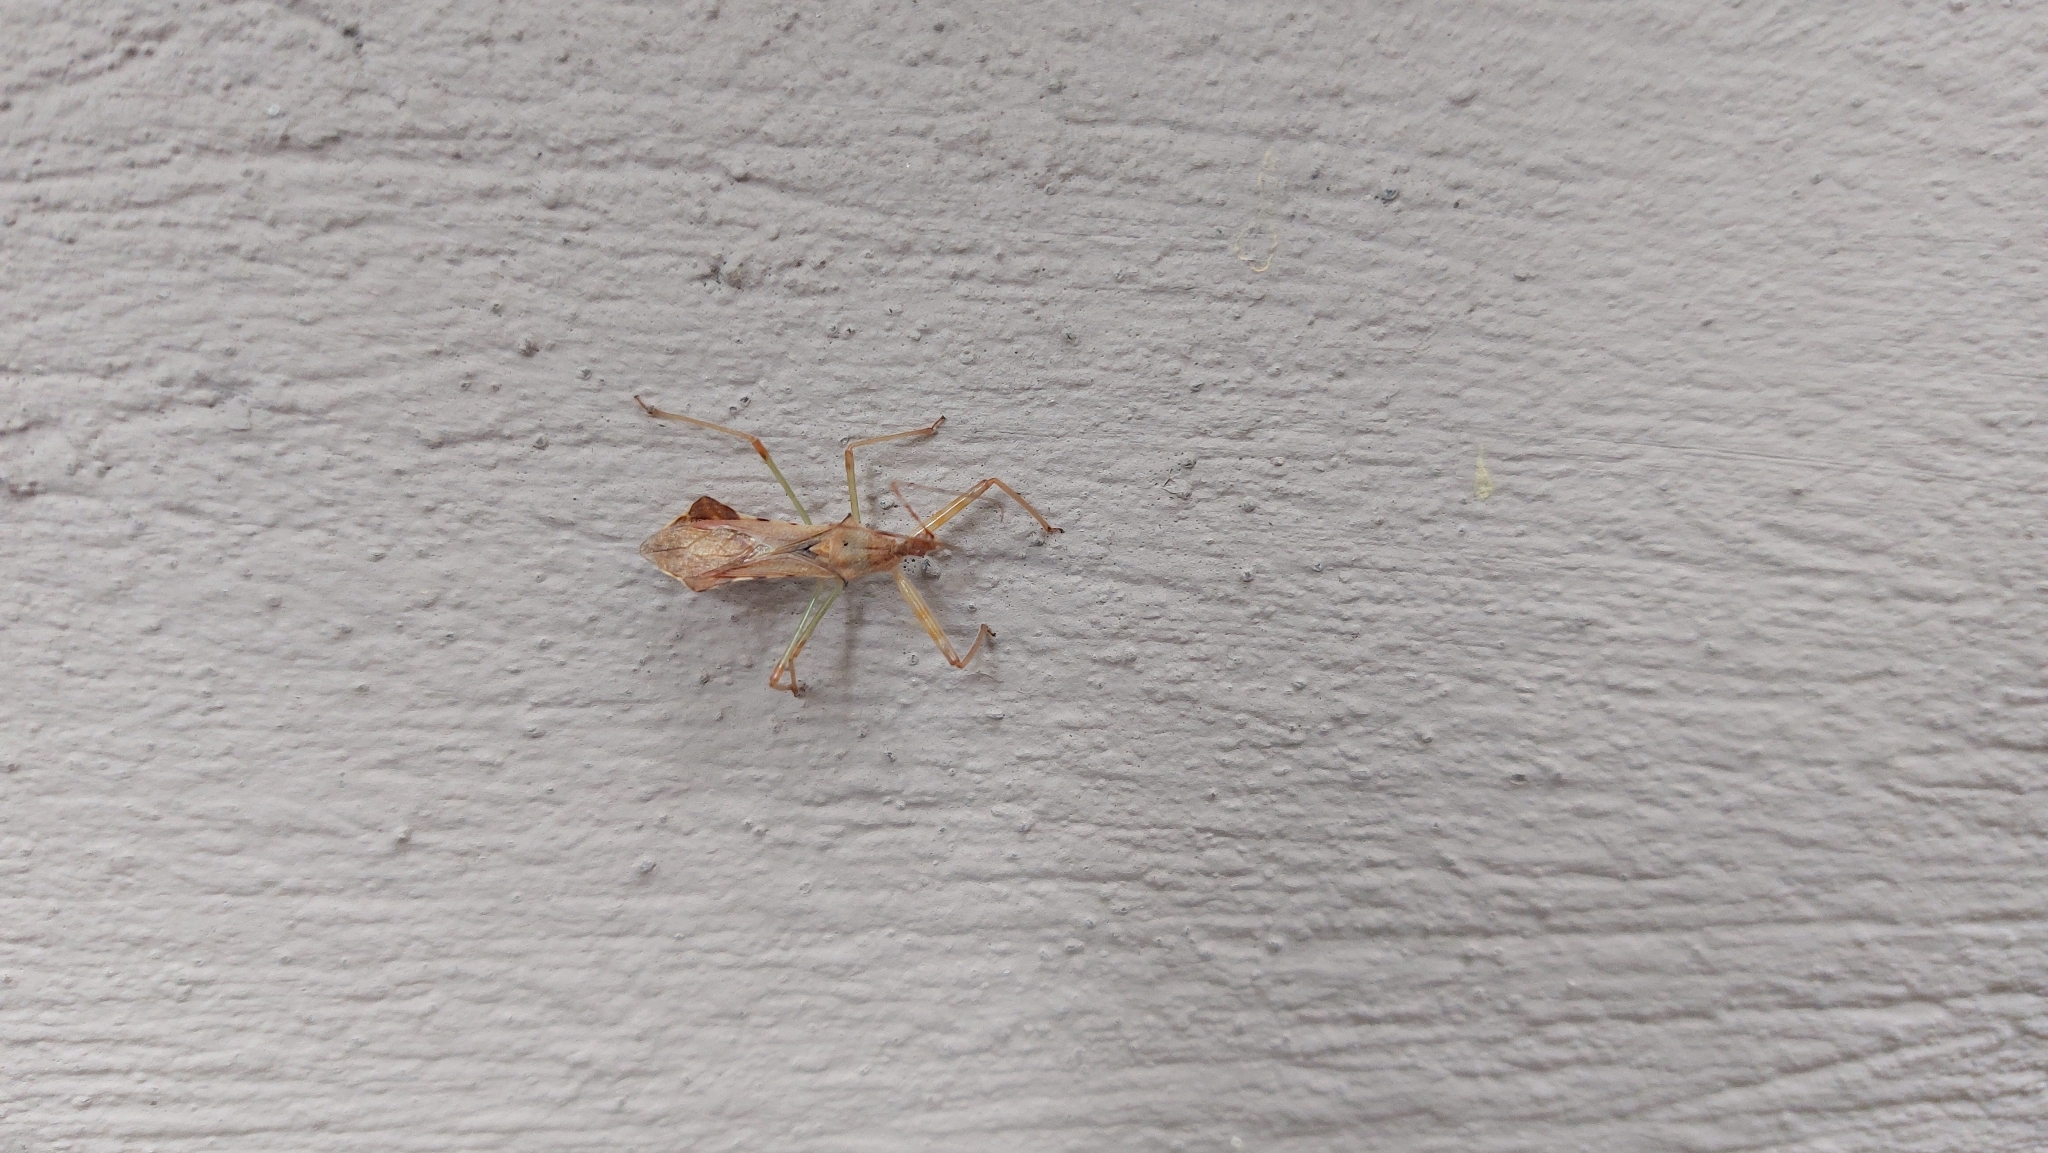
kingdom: Animalia
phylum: Arthropoda
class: Insecta
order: Hemiptera
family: Reduviidae
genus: Nagusta
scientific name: Nagusta goedelii
